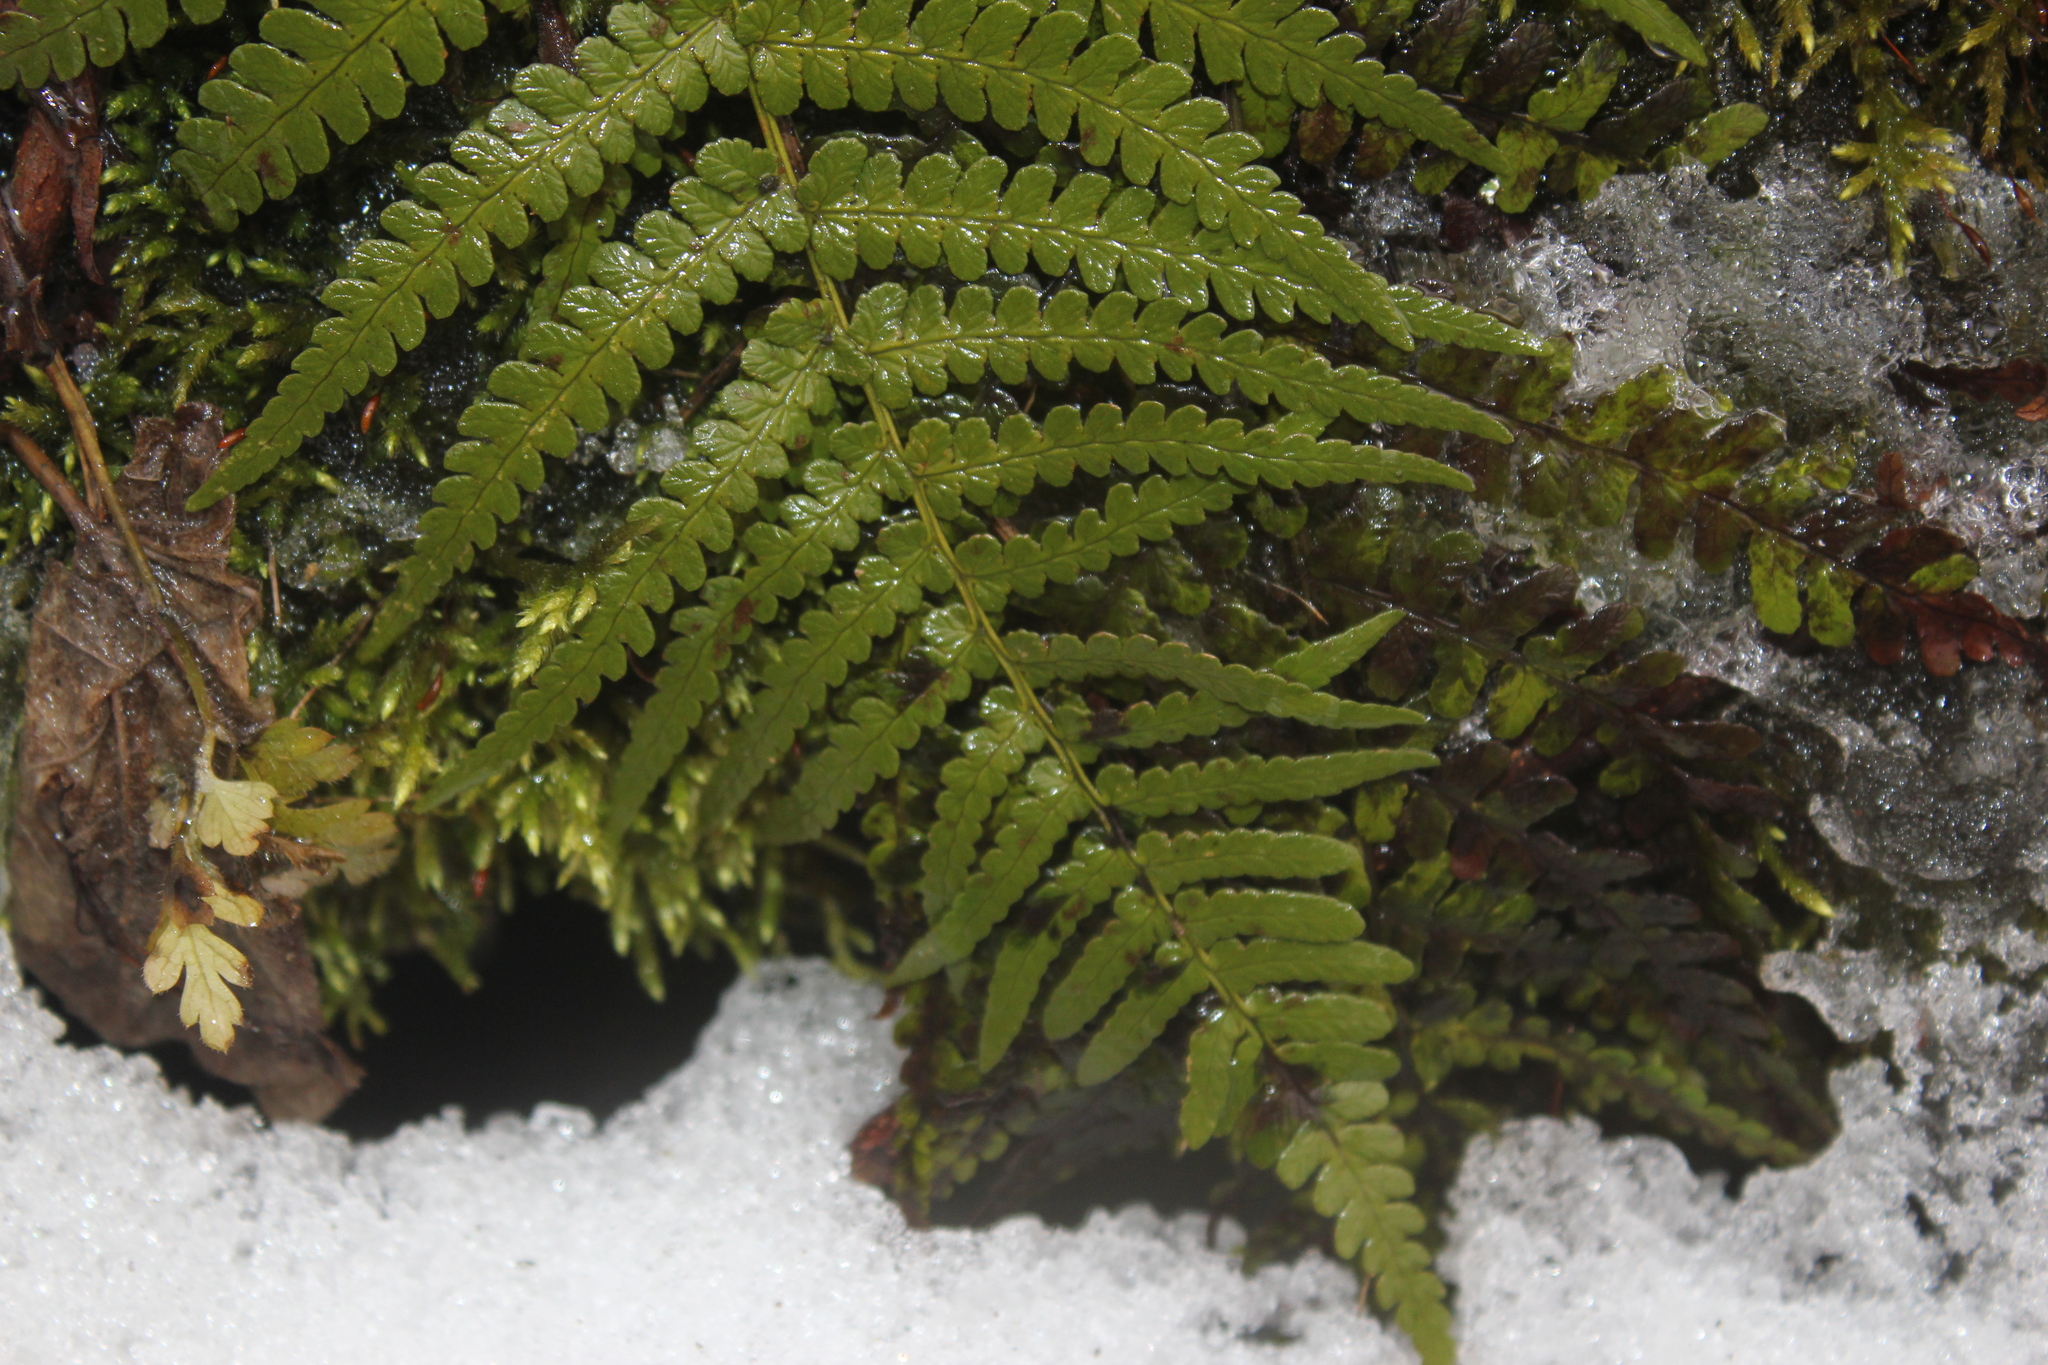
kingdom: Plantae
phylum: Tracheophyta
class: Polypodiopsida
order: Polypodiales
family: Dryopteridaceae
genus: Dryopteris
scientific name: Dryopteris marginalis
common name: Marginal wood fern
